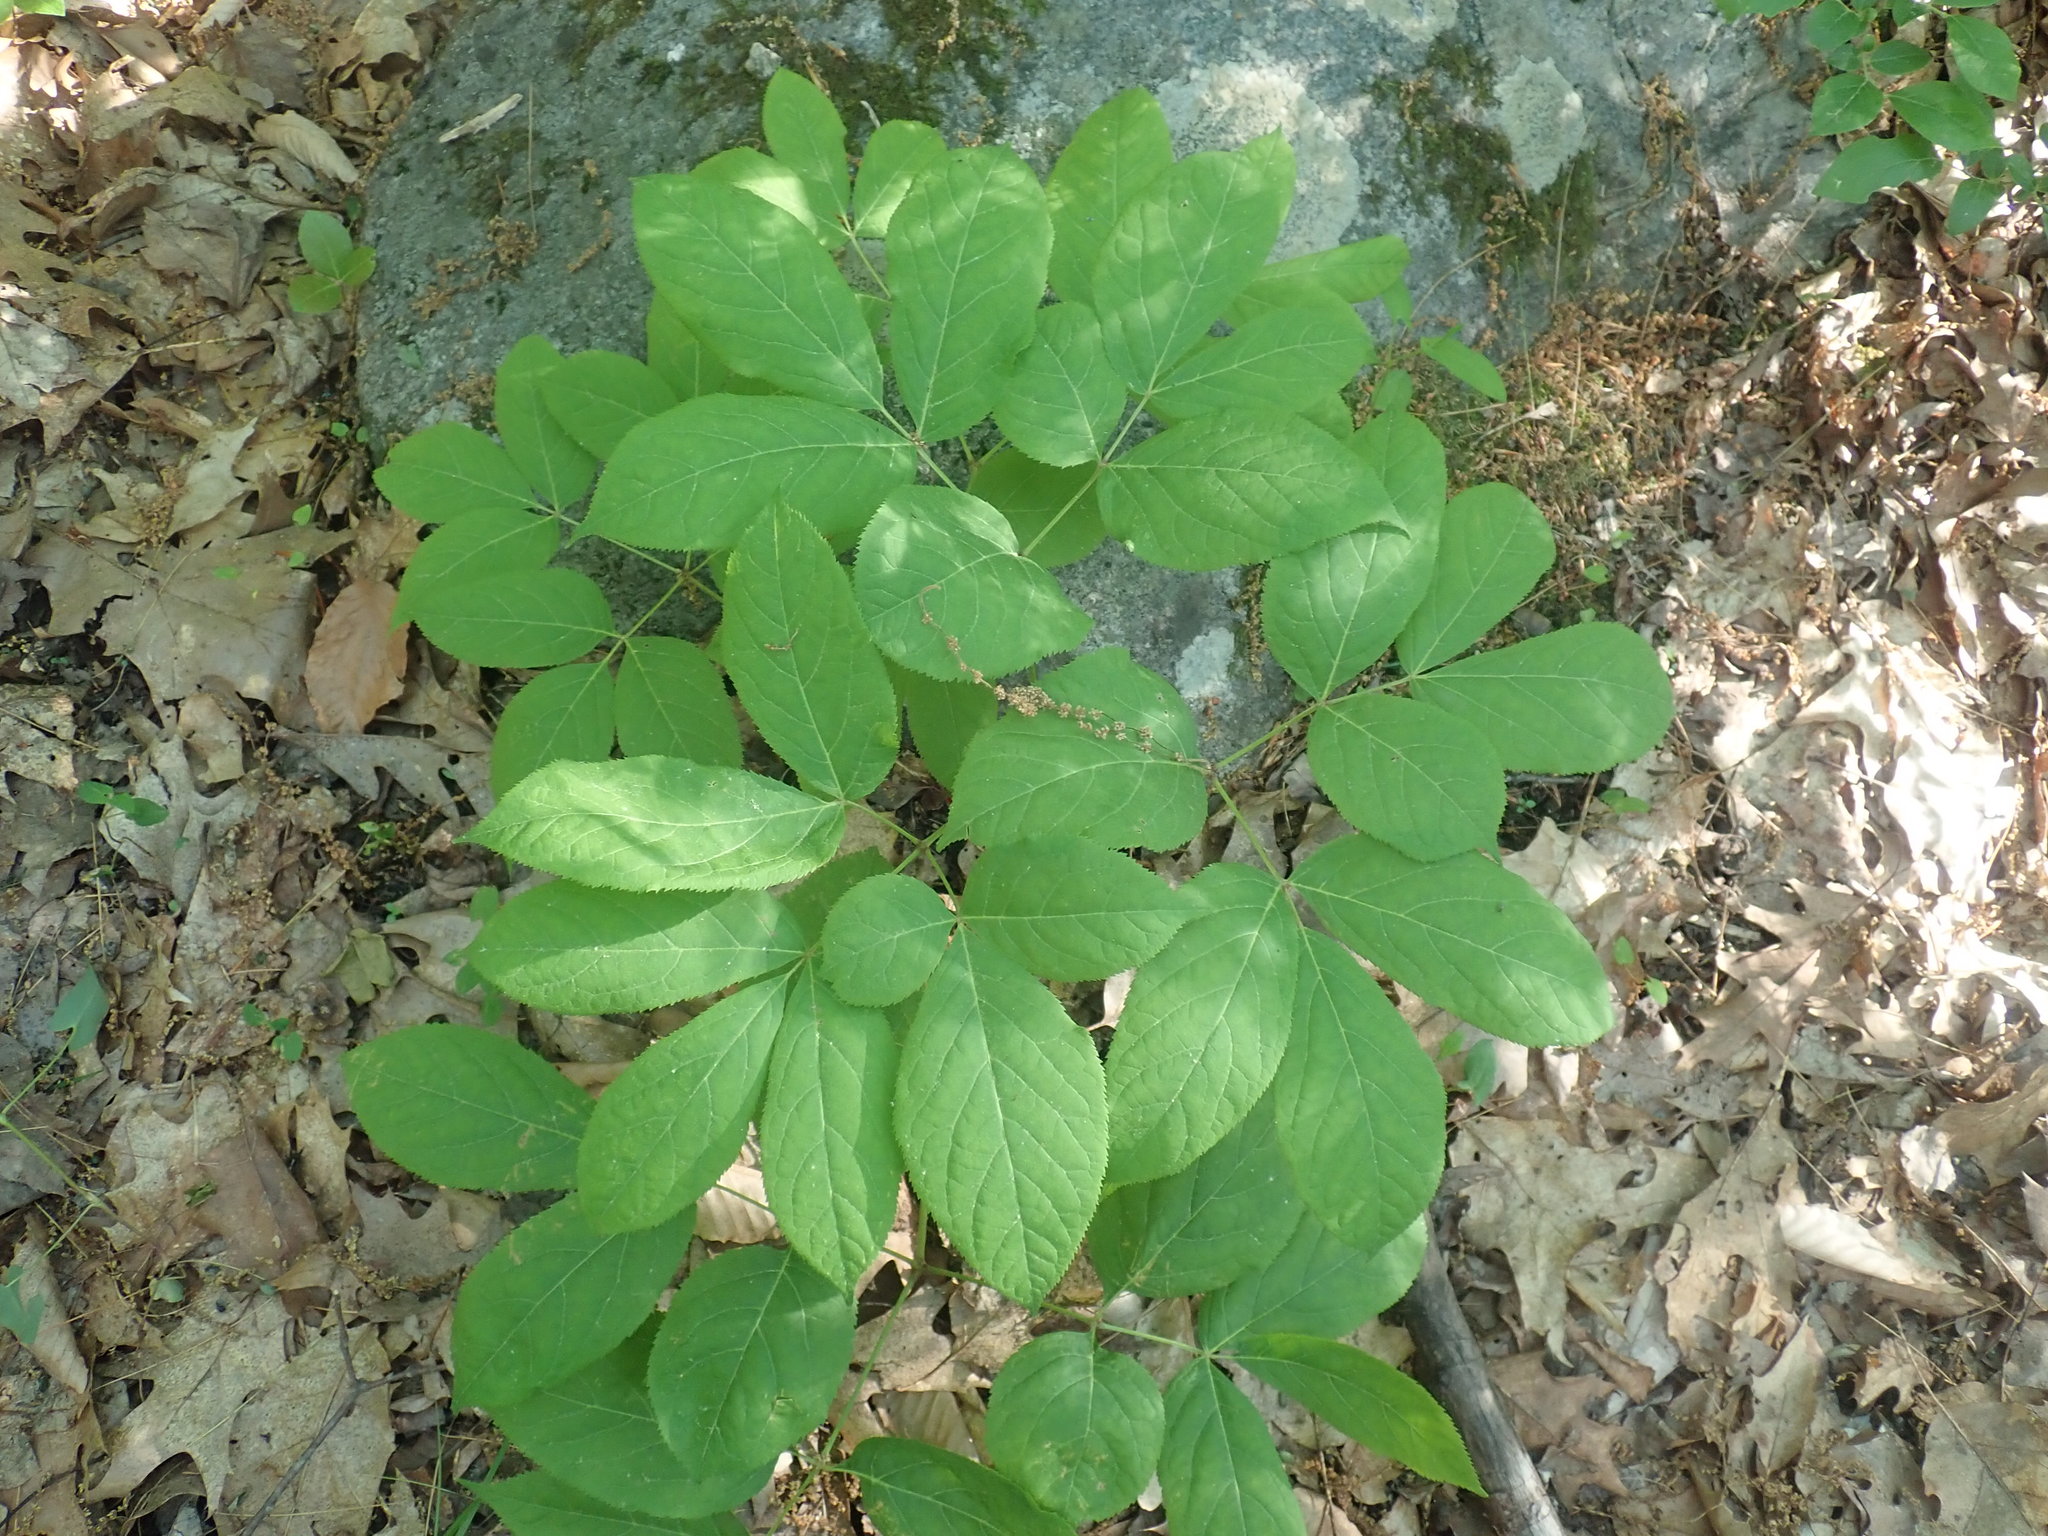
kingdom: Plantae
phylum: Tracheophyta
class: Magnoliopsida
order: Apiales
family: Araliaceae
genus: Aralia
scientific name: Aralia nudicaulis
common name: Wild sarsaparilla
